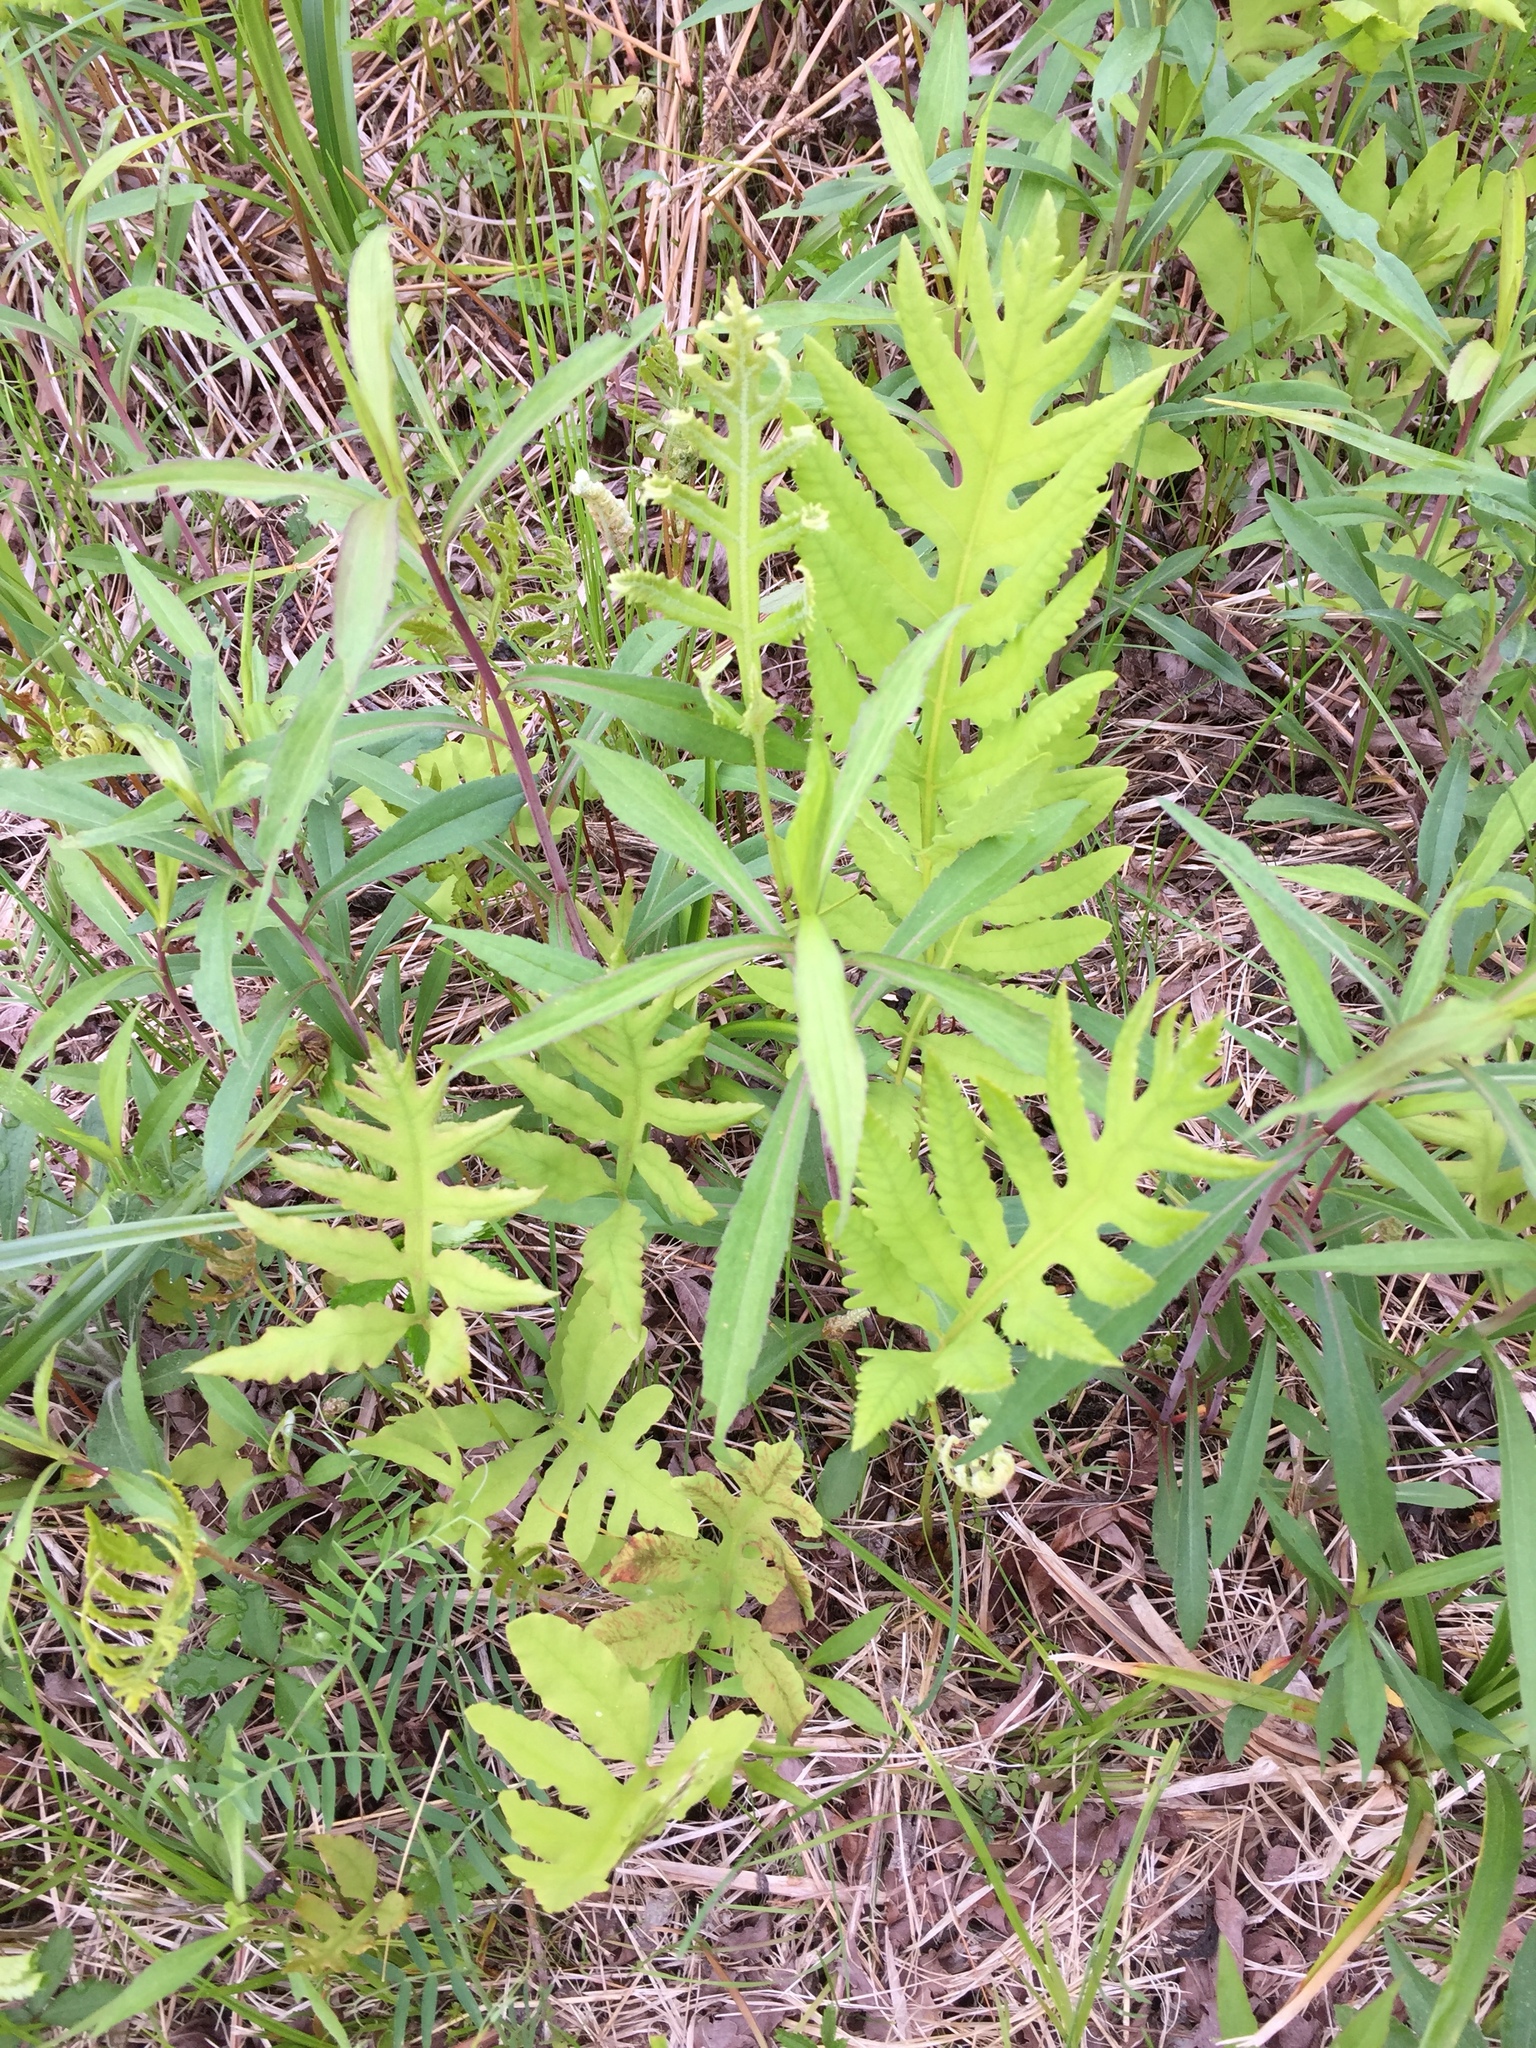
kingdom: Plantae
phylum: Tracheophyta
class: Polypodiopsida
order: Polypodiales
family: Onocleaceae
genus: Onoclea
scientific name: Onoclea sensibilis
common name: Sensitive fern
